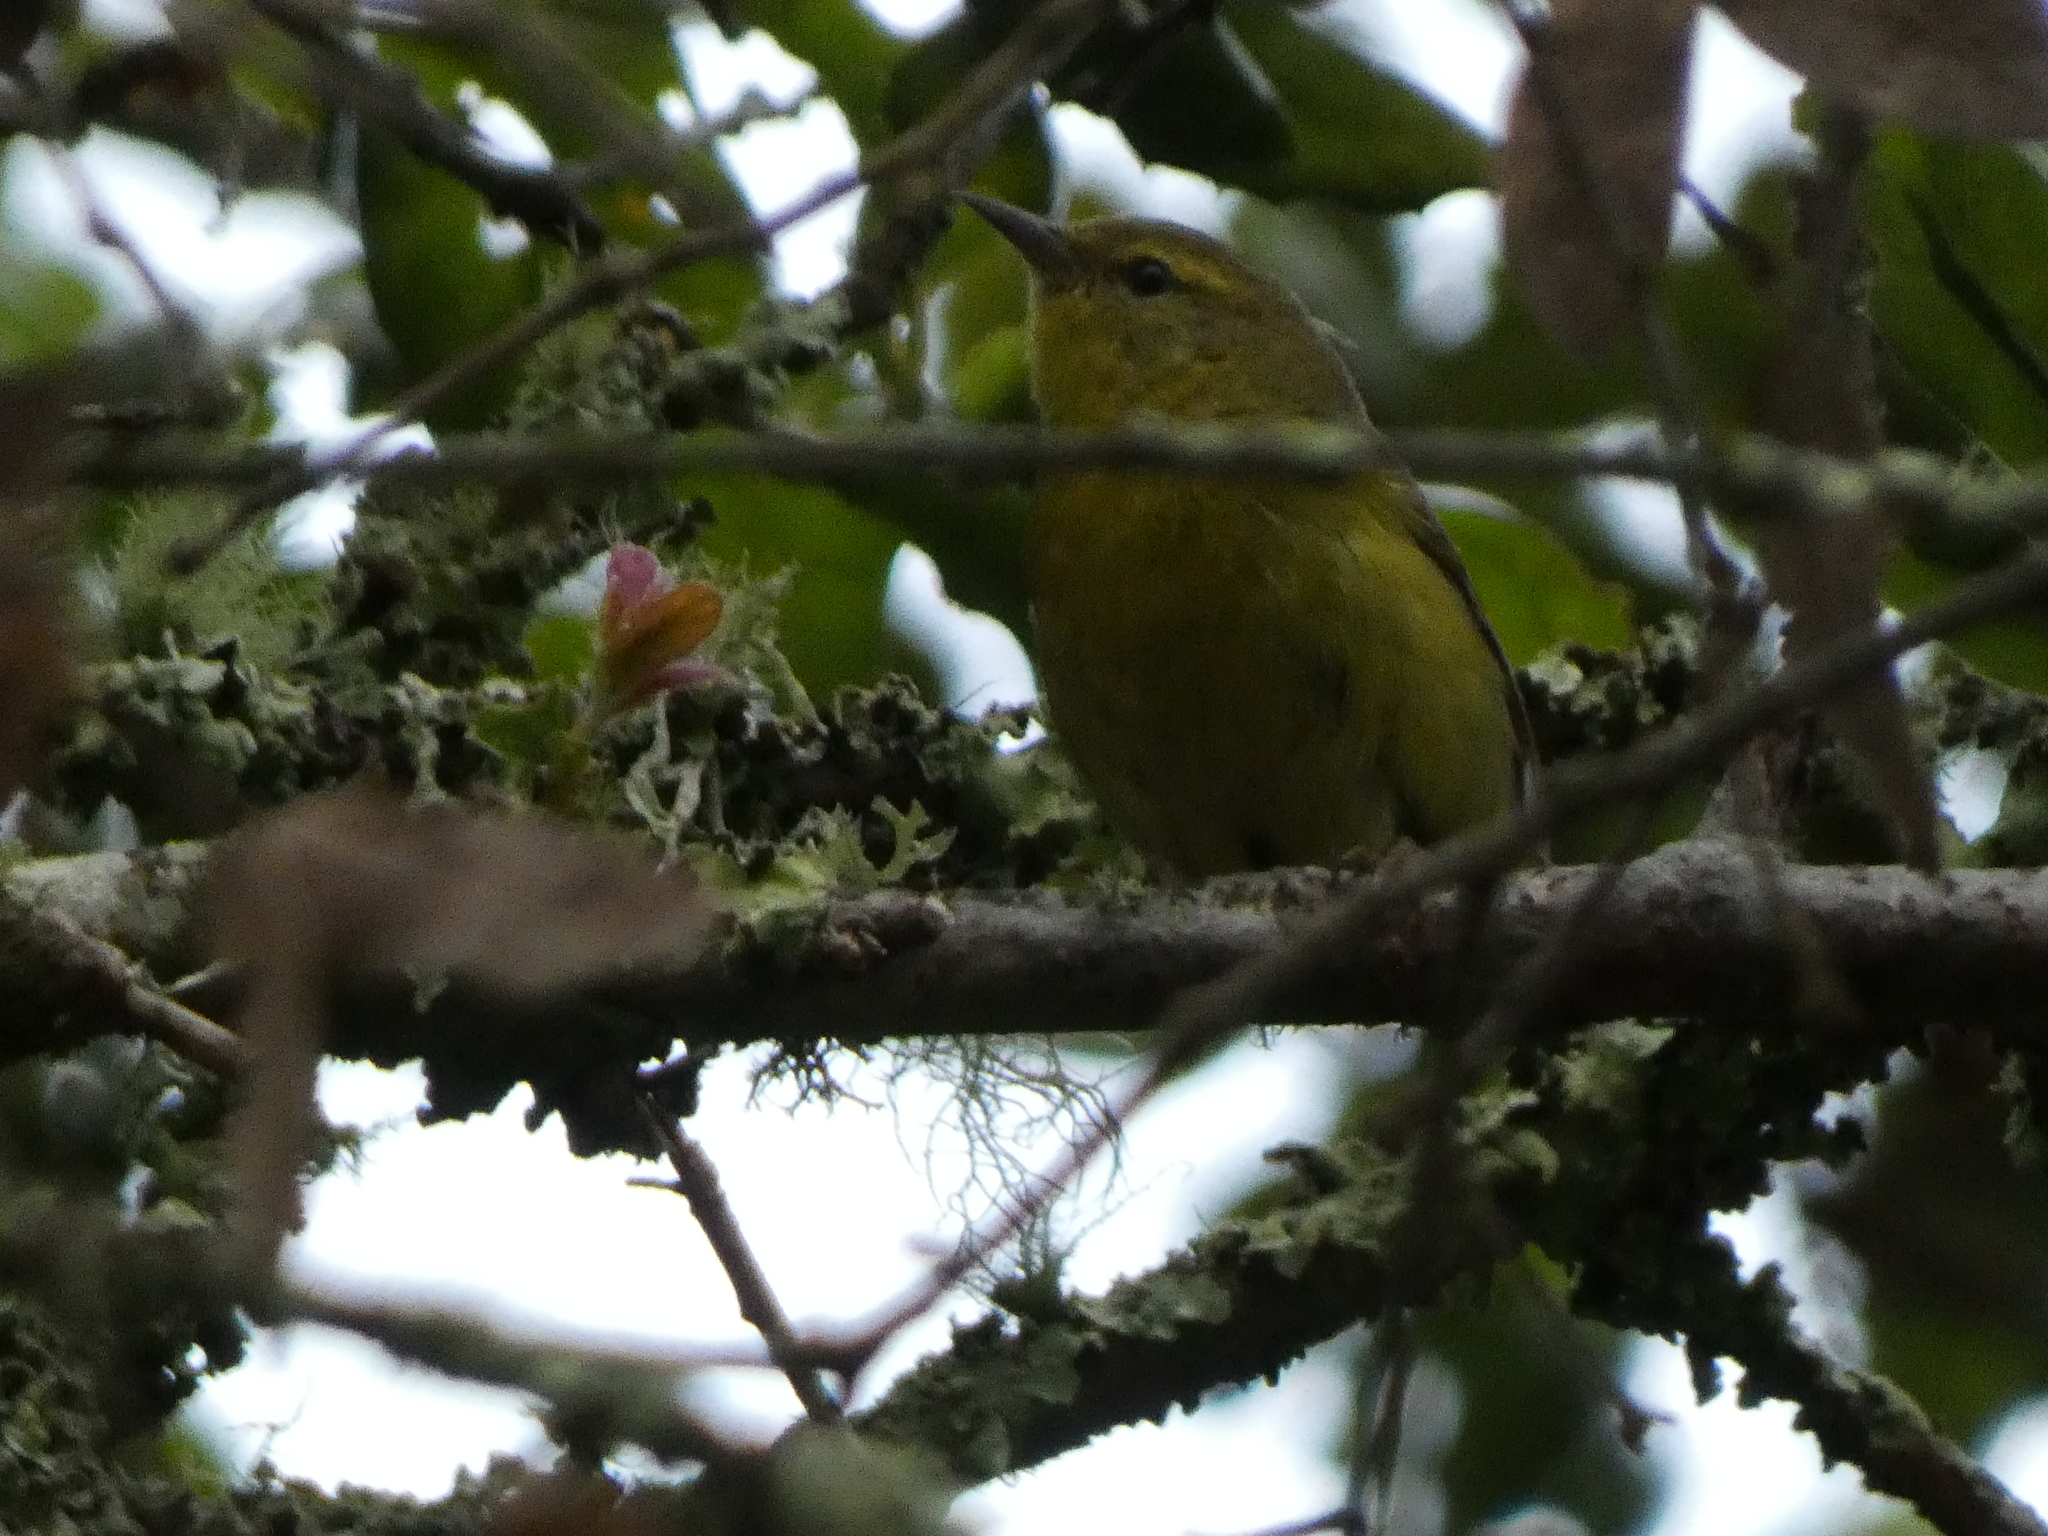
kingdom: Animalia
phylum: Chordata
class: Aves
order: Passeriformes
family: Parulidae
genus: Leiothlypis
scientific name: Leiothlypis celata
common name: Orange-crowned warbler
